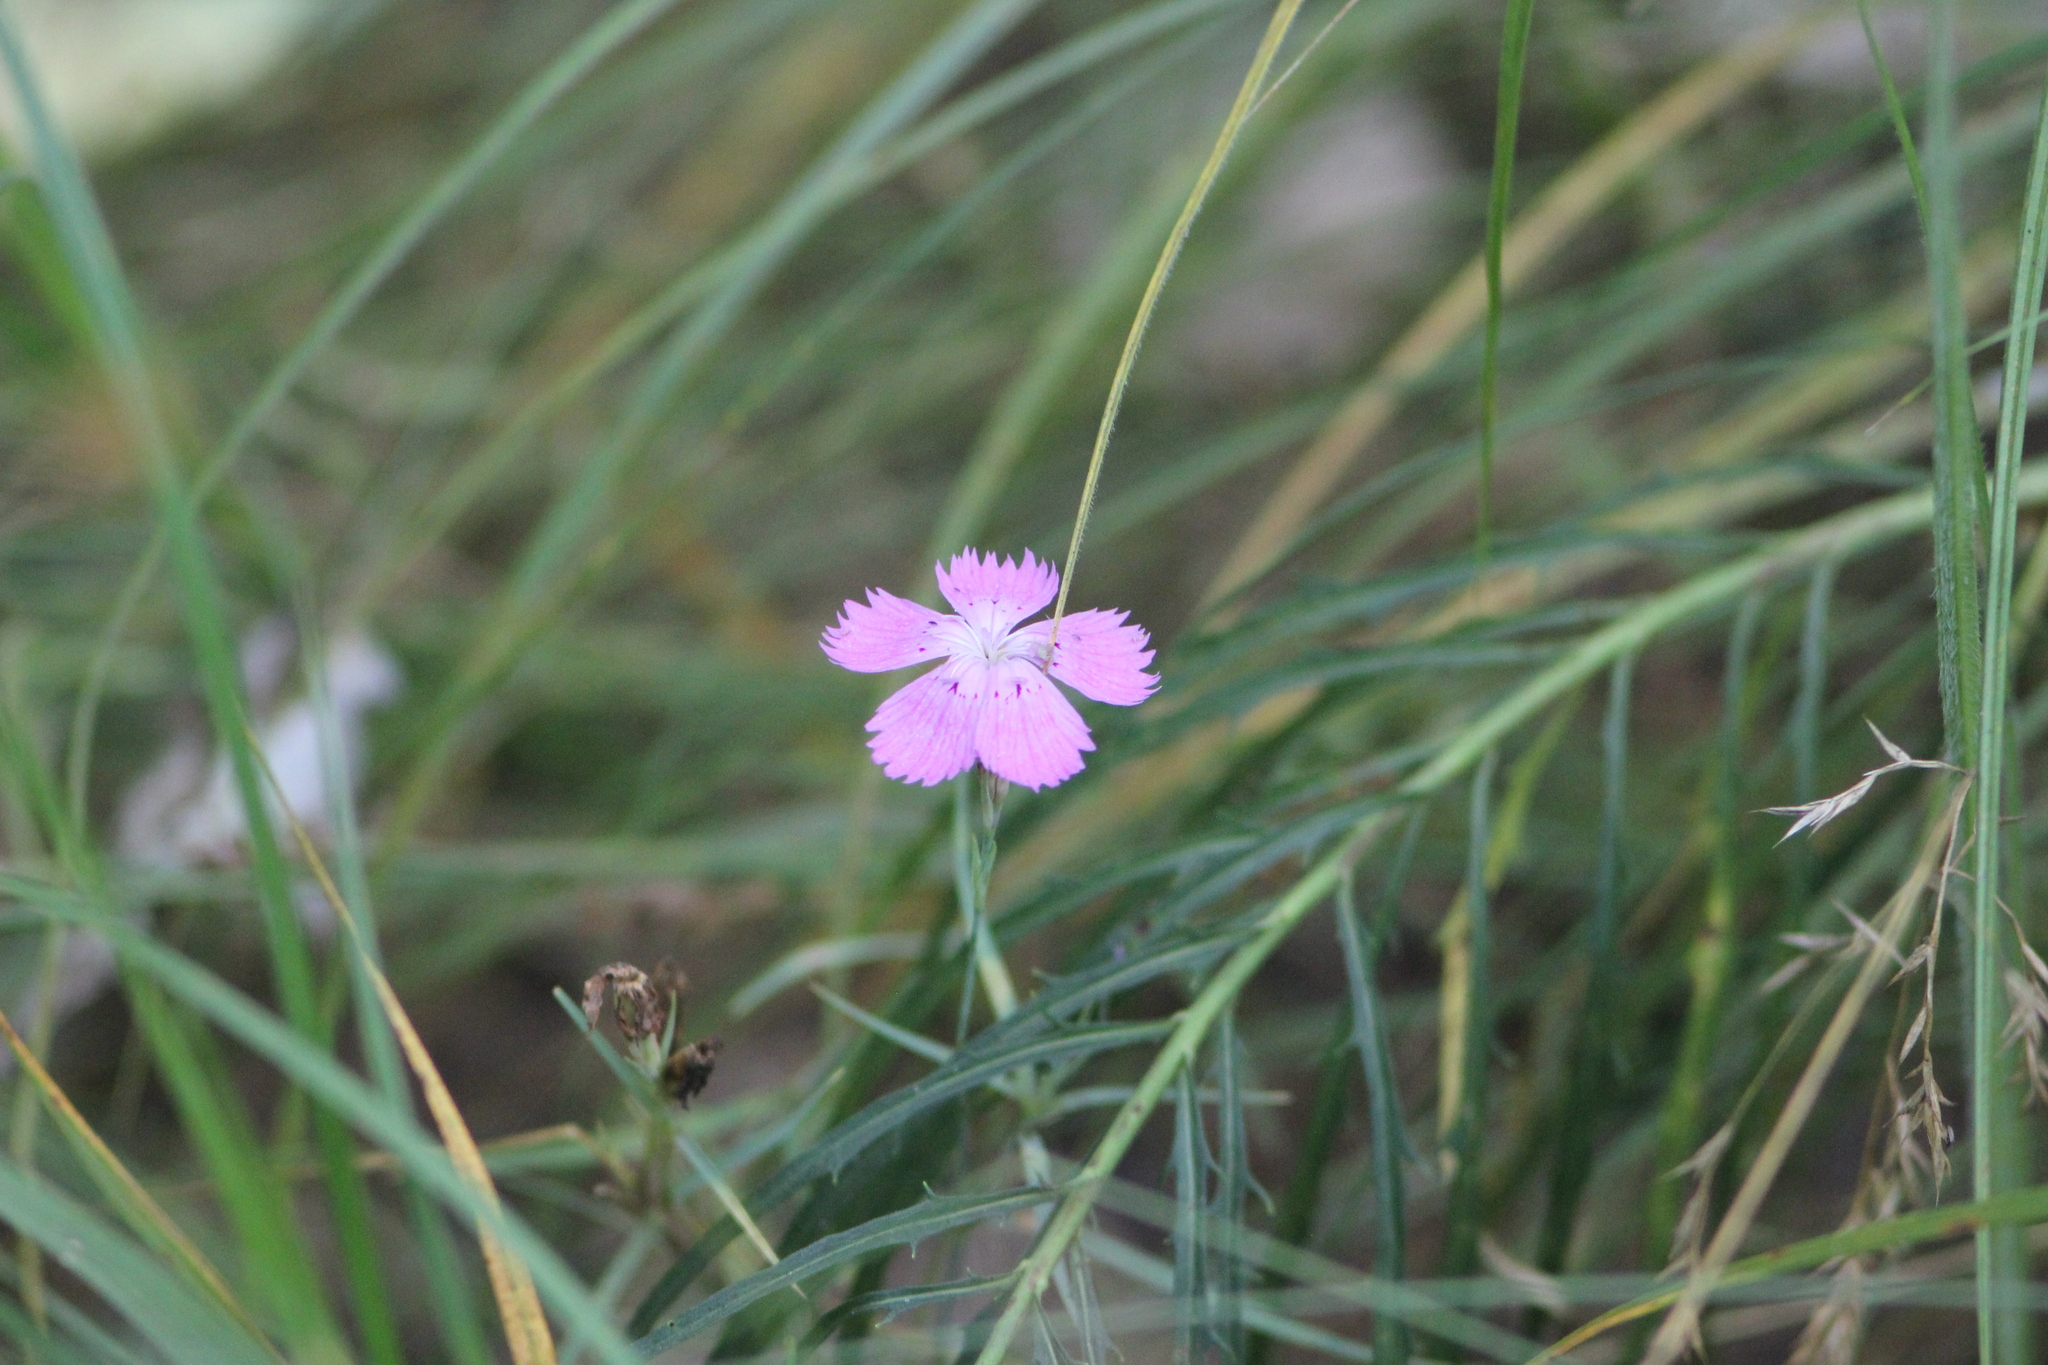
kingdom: Plantae
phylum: Tracheophyta
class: Magnoliopsida
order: Caryophyllales
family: Caryophyllaceae
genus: Dianthus
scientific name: Dianthus chinensis
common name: Rainbow pink
